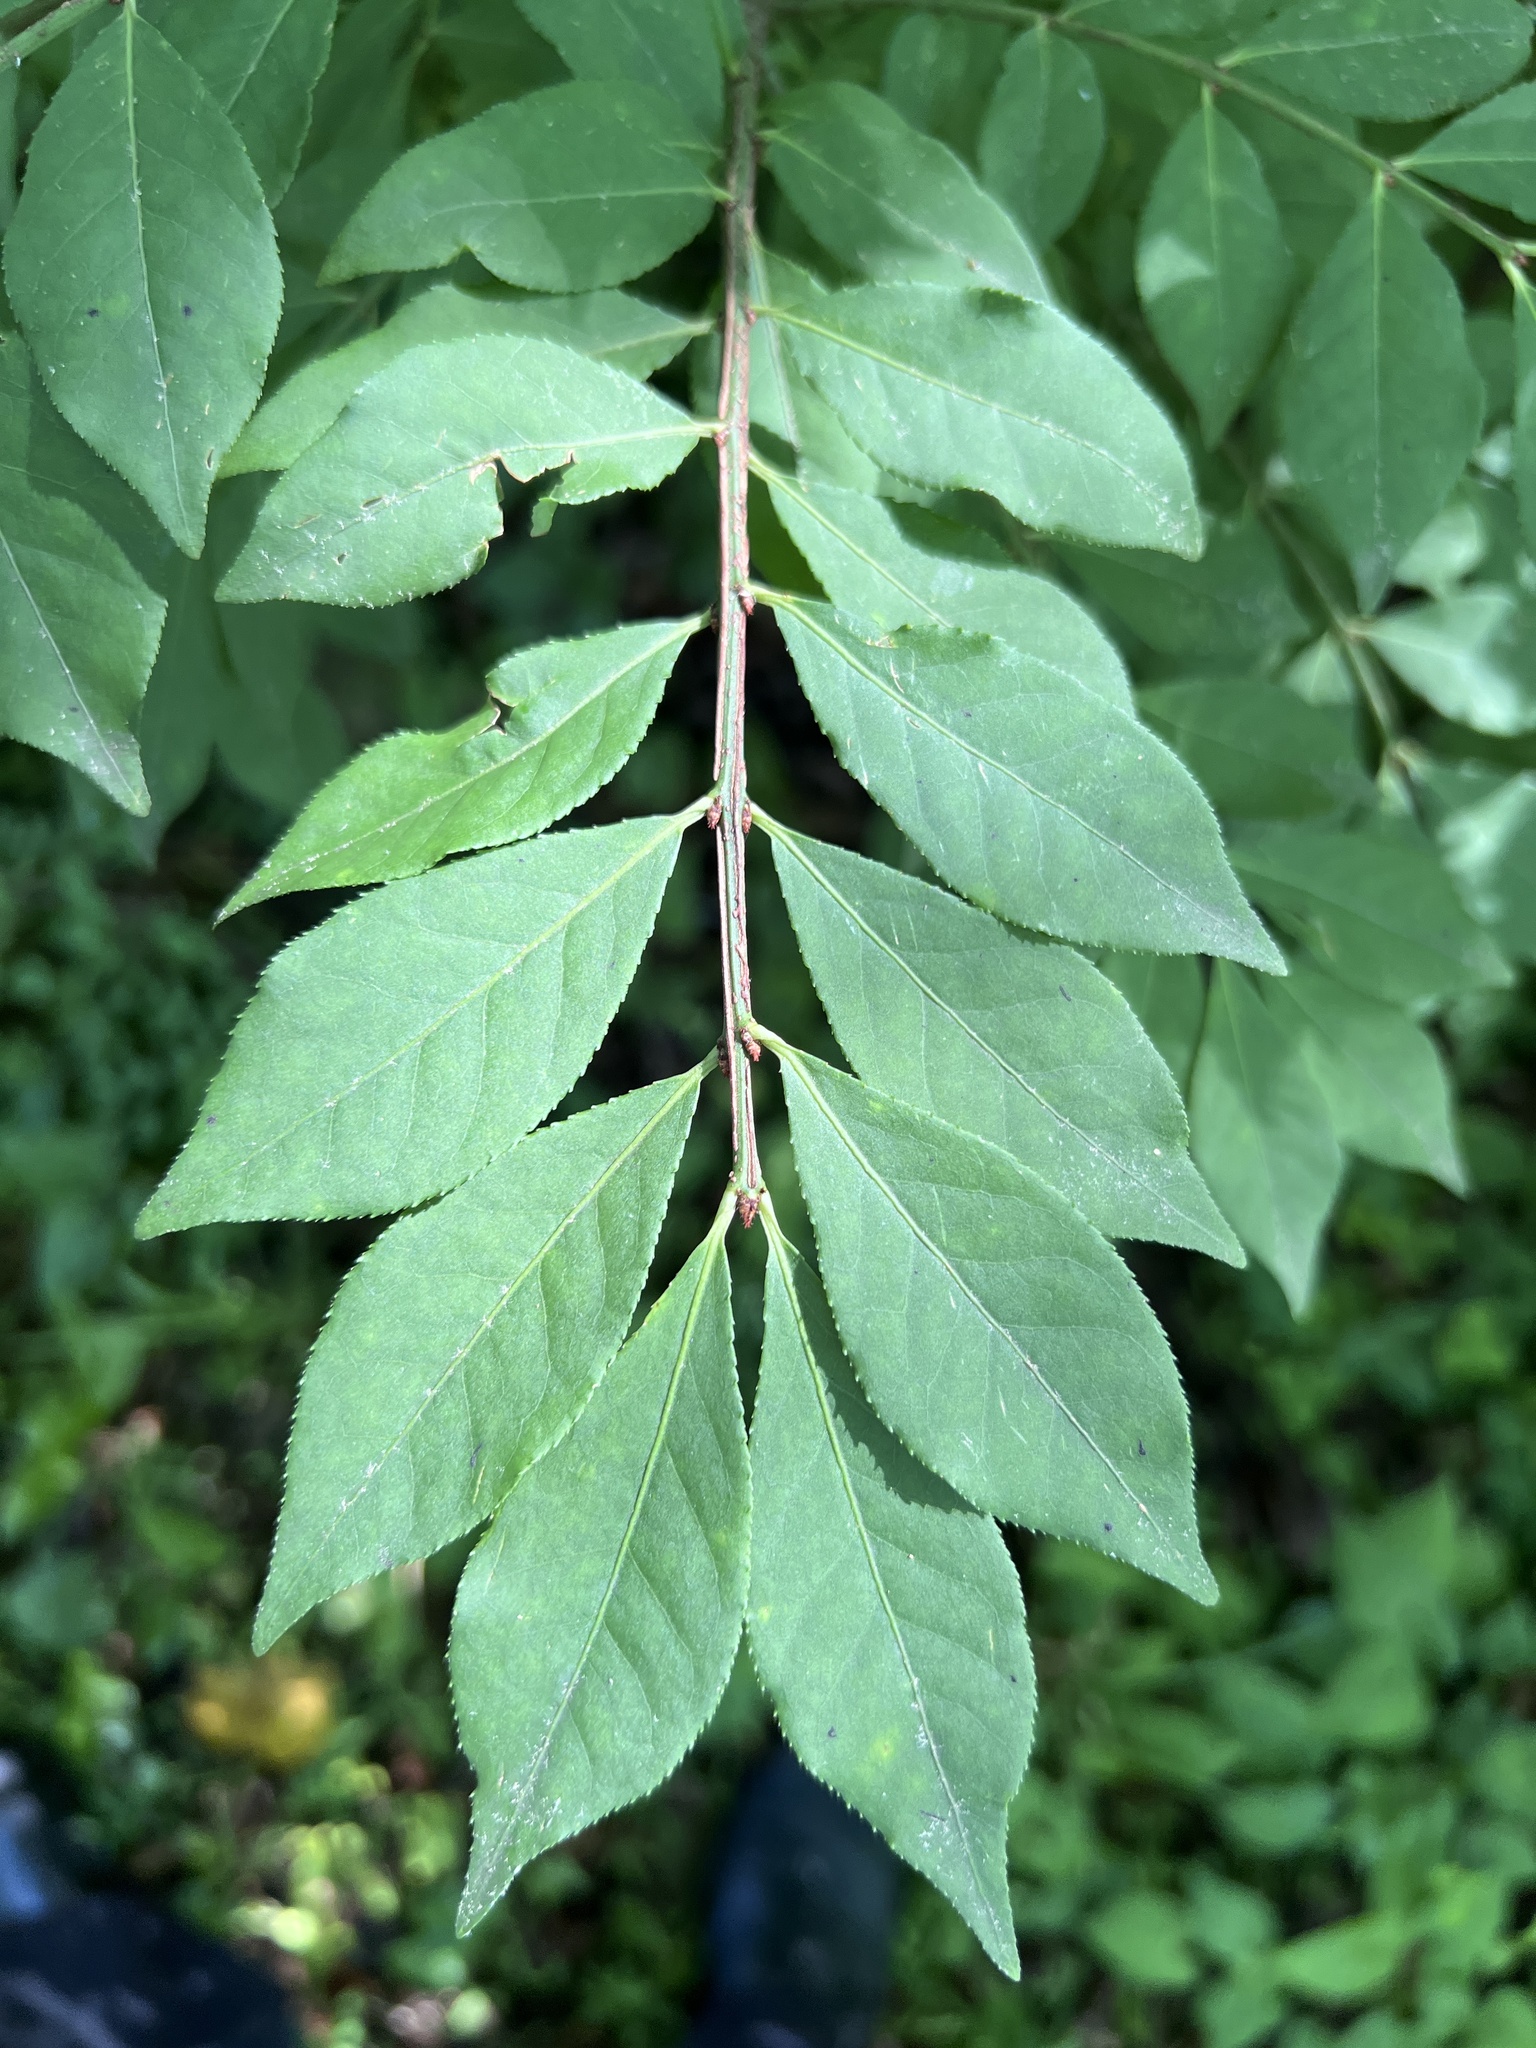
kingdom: Plantae
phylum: Tracheophyta
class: Magnoliopsida
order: Celastrales
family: Celastraceae
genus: Euonymus
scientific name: Euonymus alatus
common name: Winged euonymus
